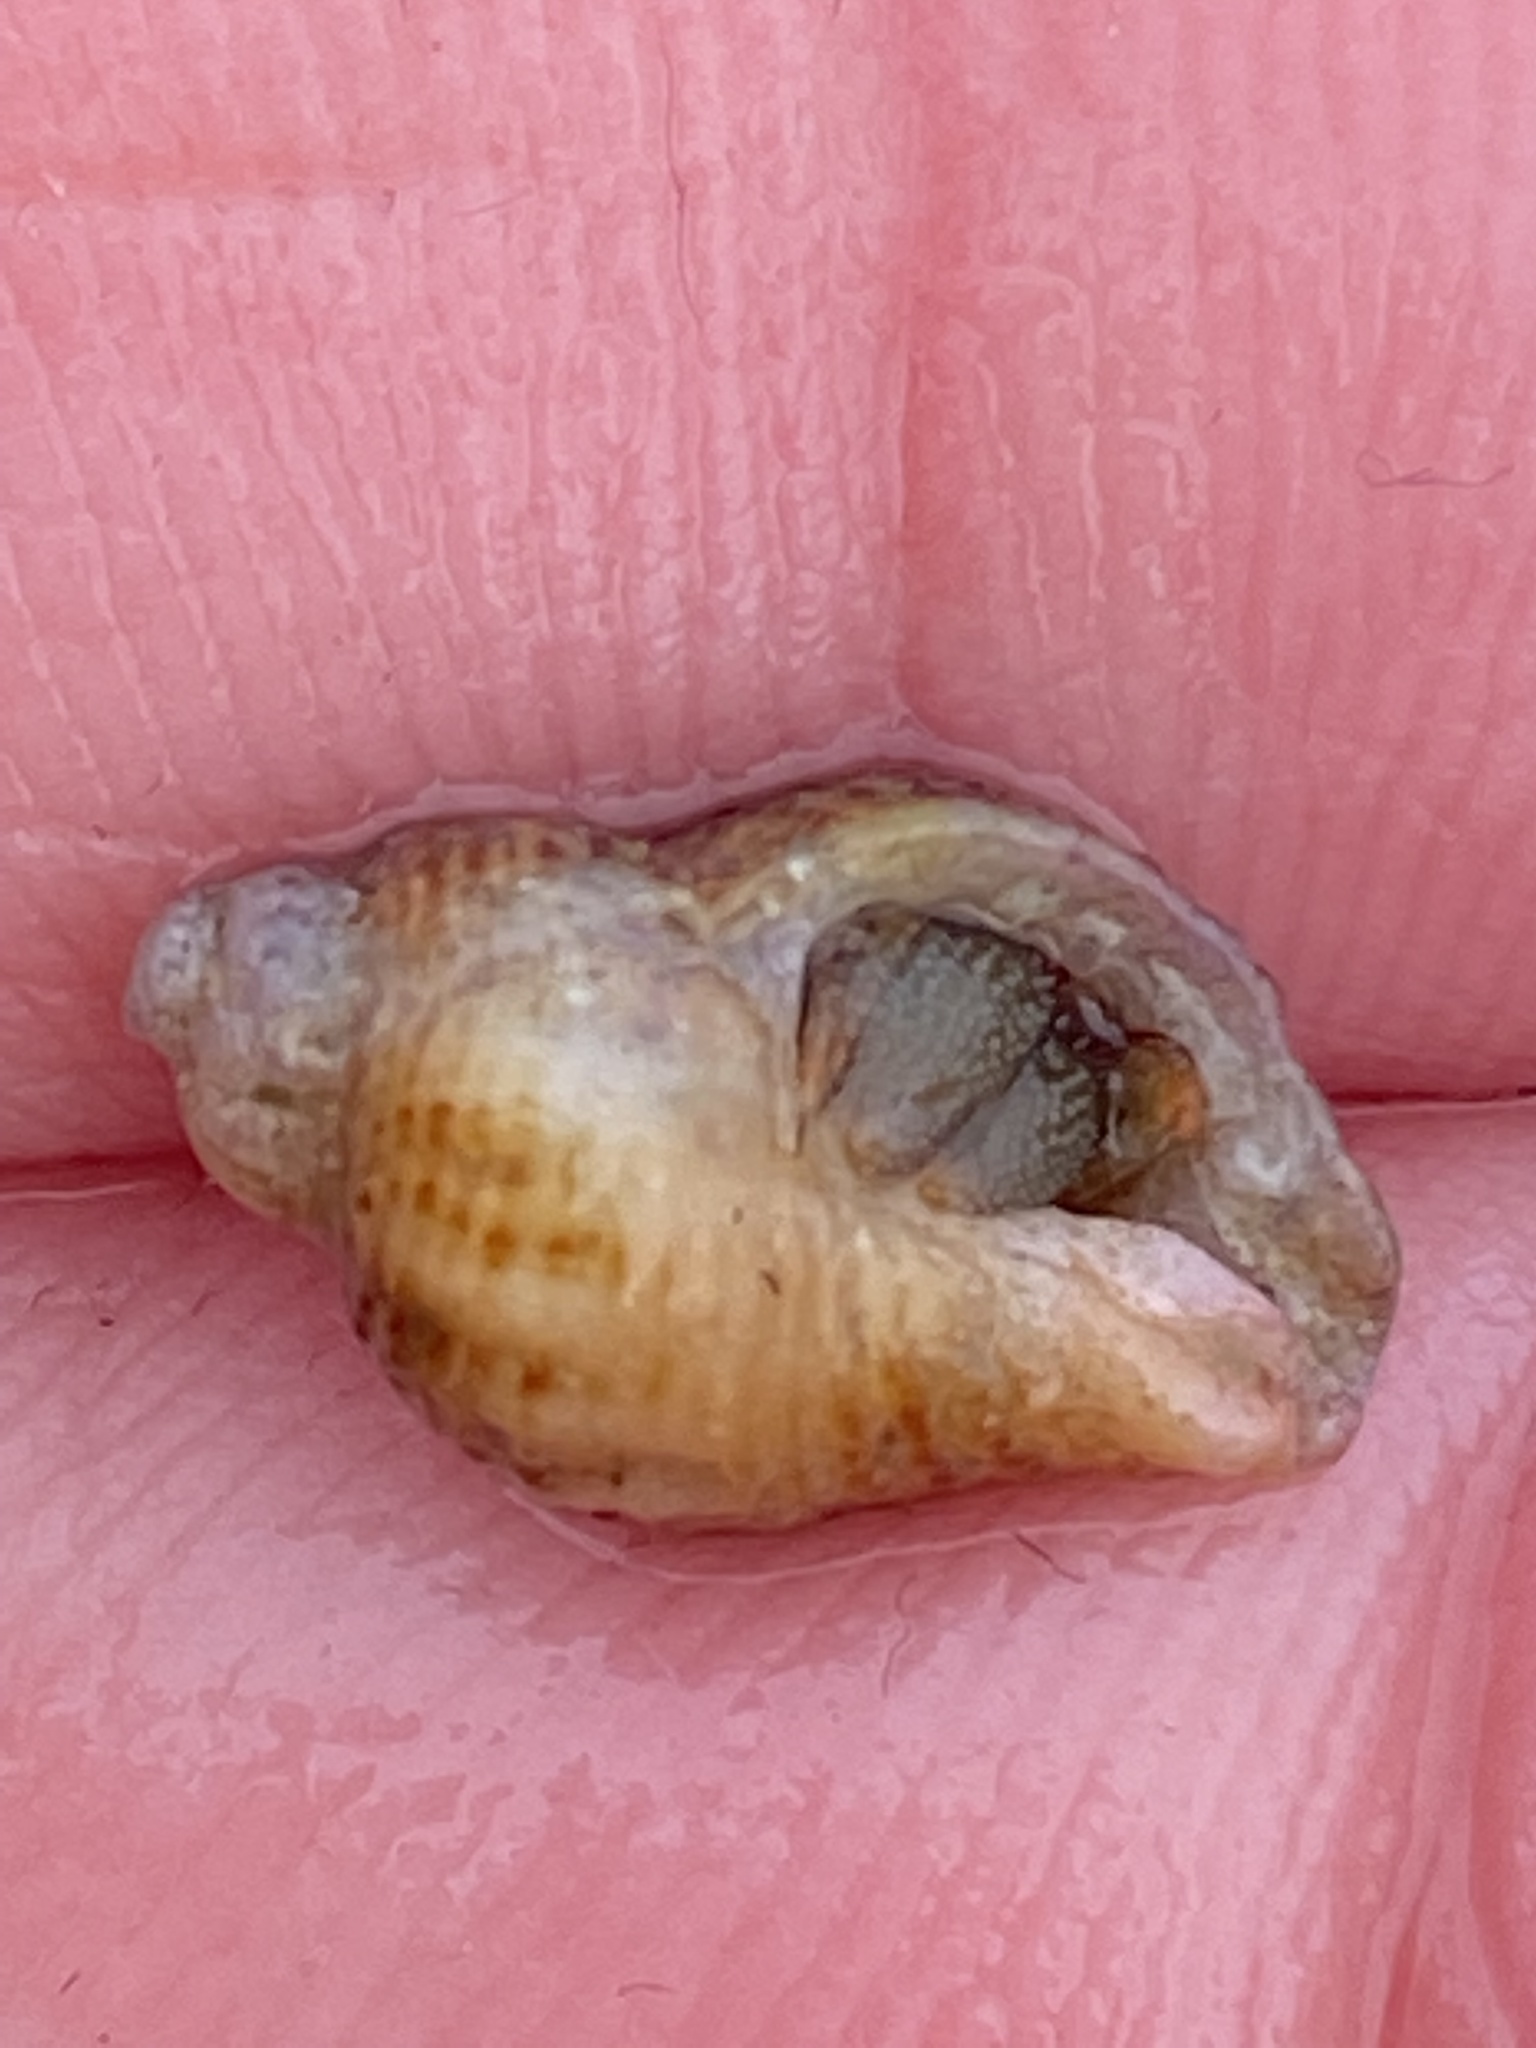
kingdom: Animalia
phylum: Mollusca
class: Gastropoda
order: Neogastropoda
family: Muricidae
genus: Paciocinebrina
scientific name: Paciocinebrina lurida
